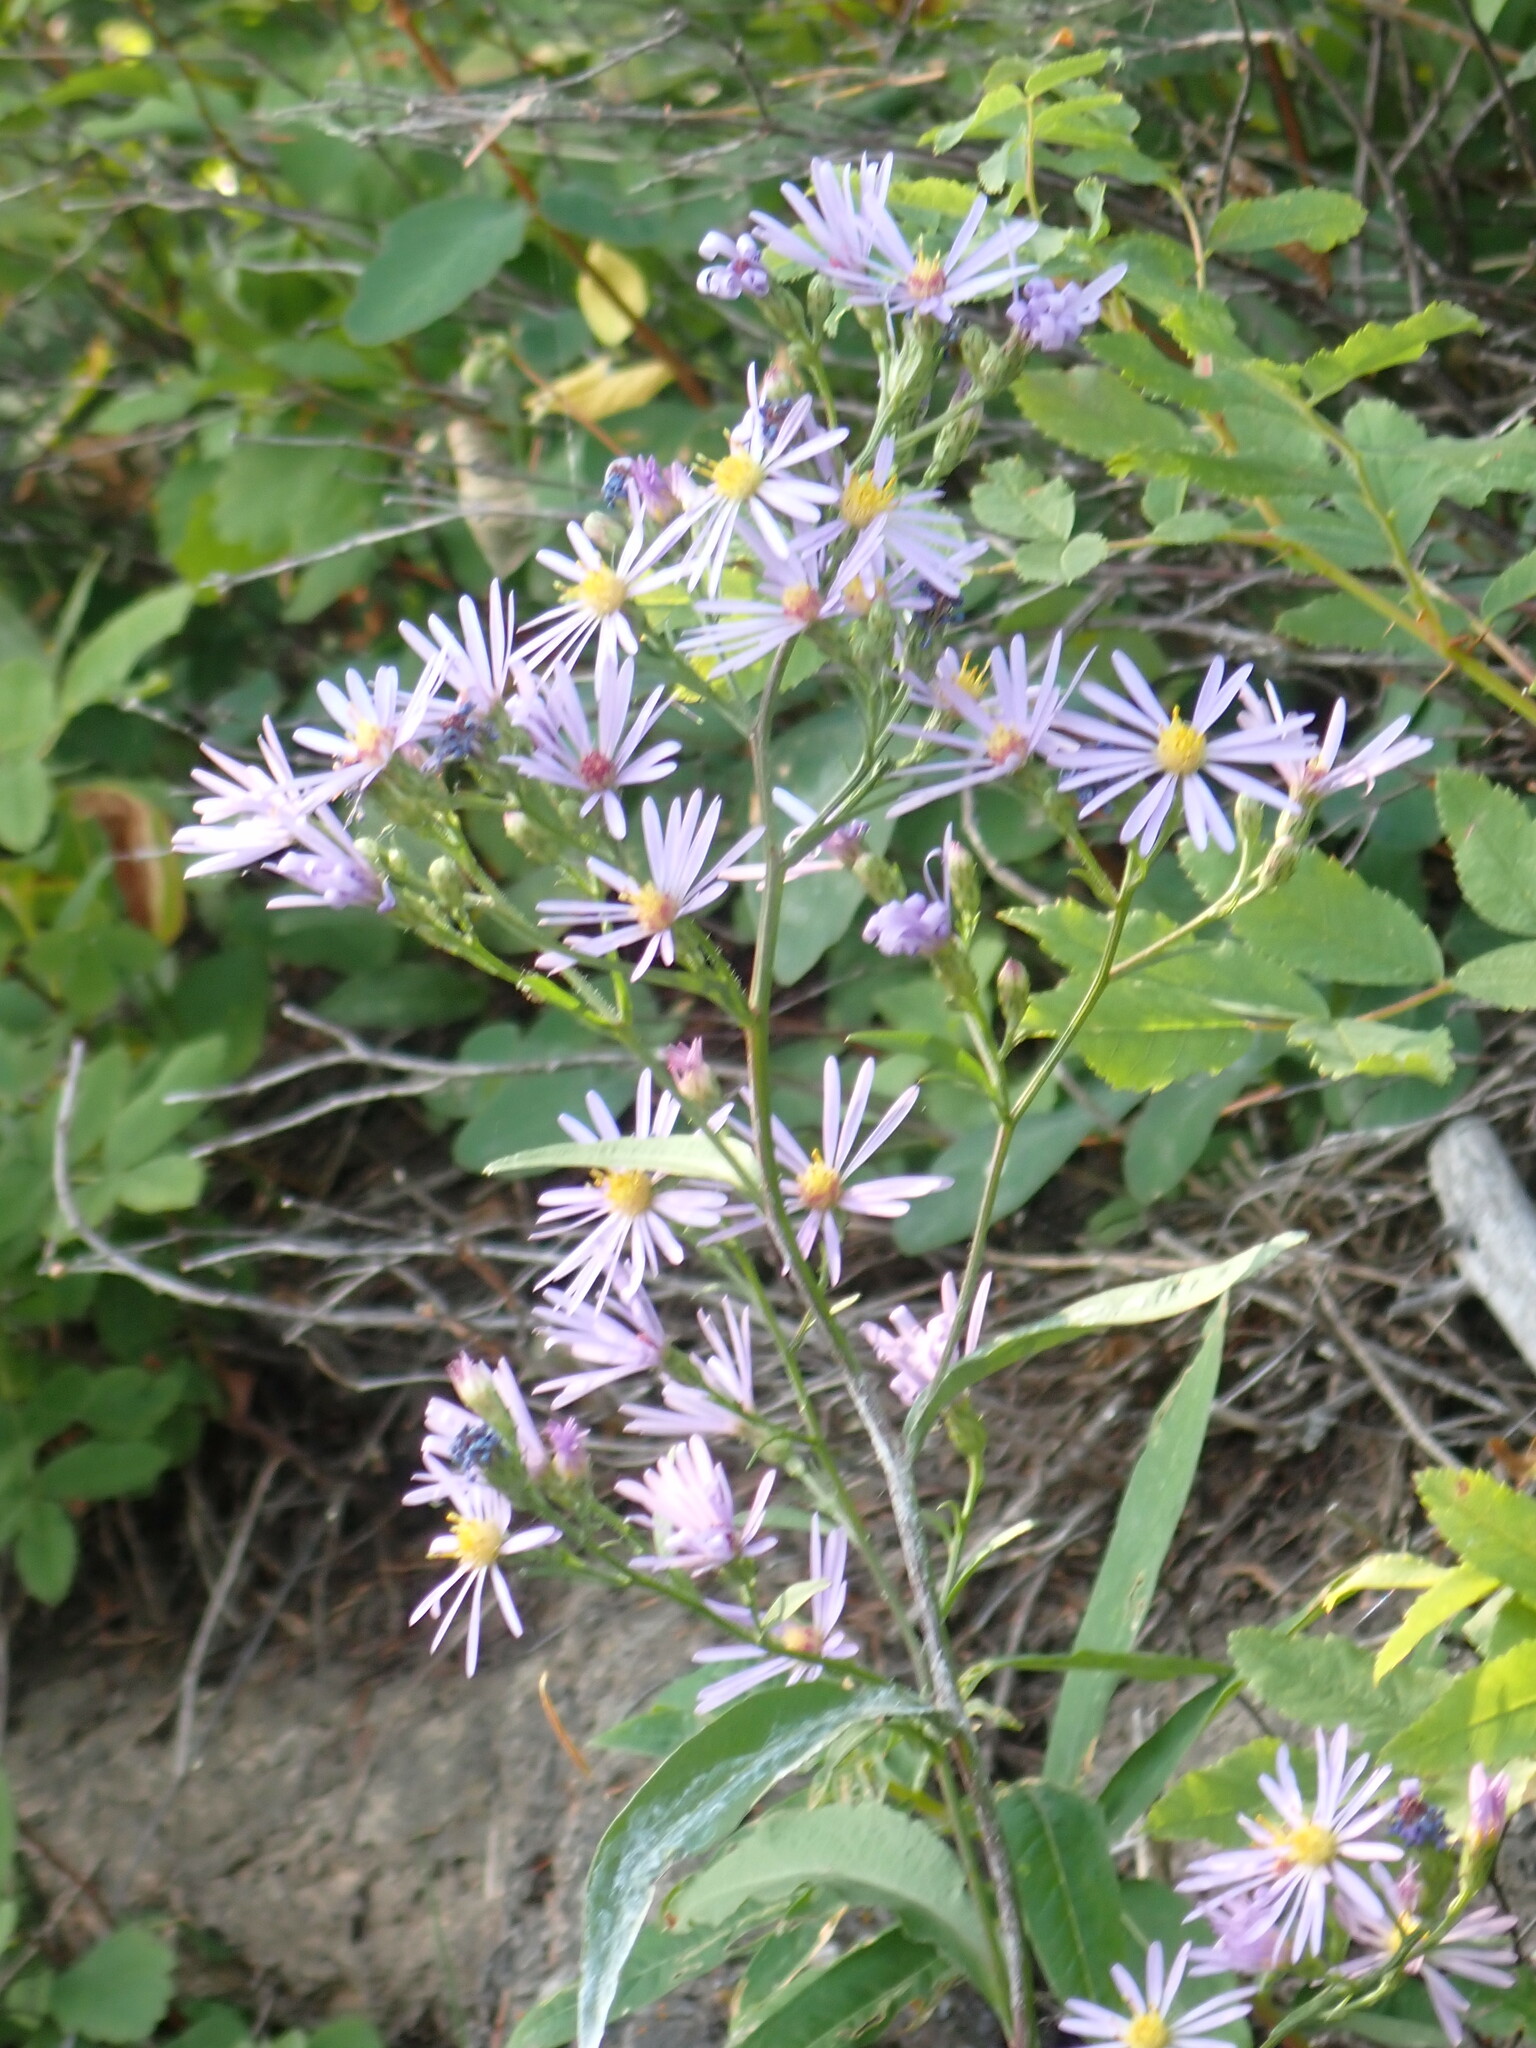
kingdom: Plantae
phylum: Tracheophyta
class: Magnoliopsida
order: Asterales
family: Asteraceae
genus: Symphyotrichum
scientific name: Symphyotrichum ciliolatum
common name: Fringed blue aster
